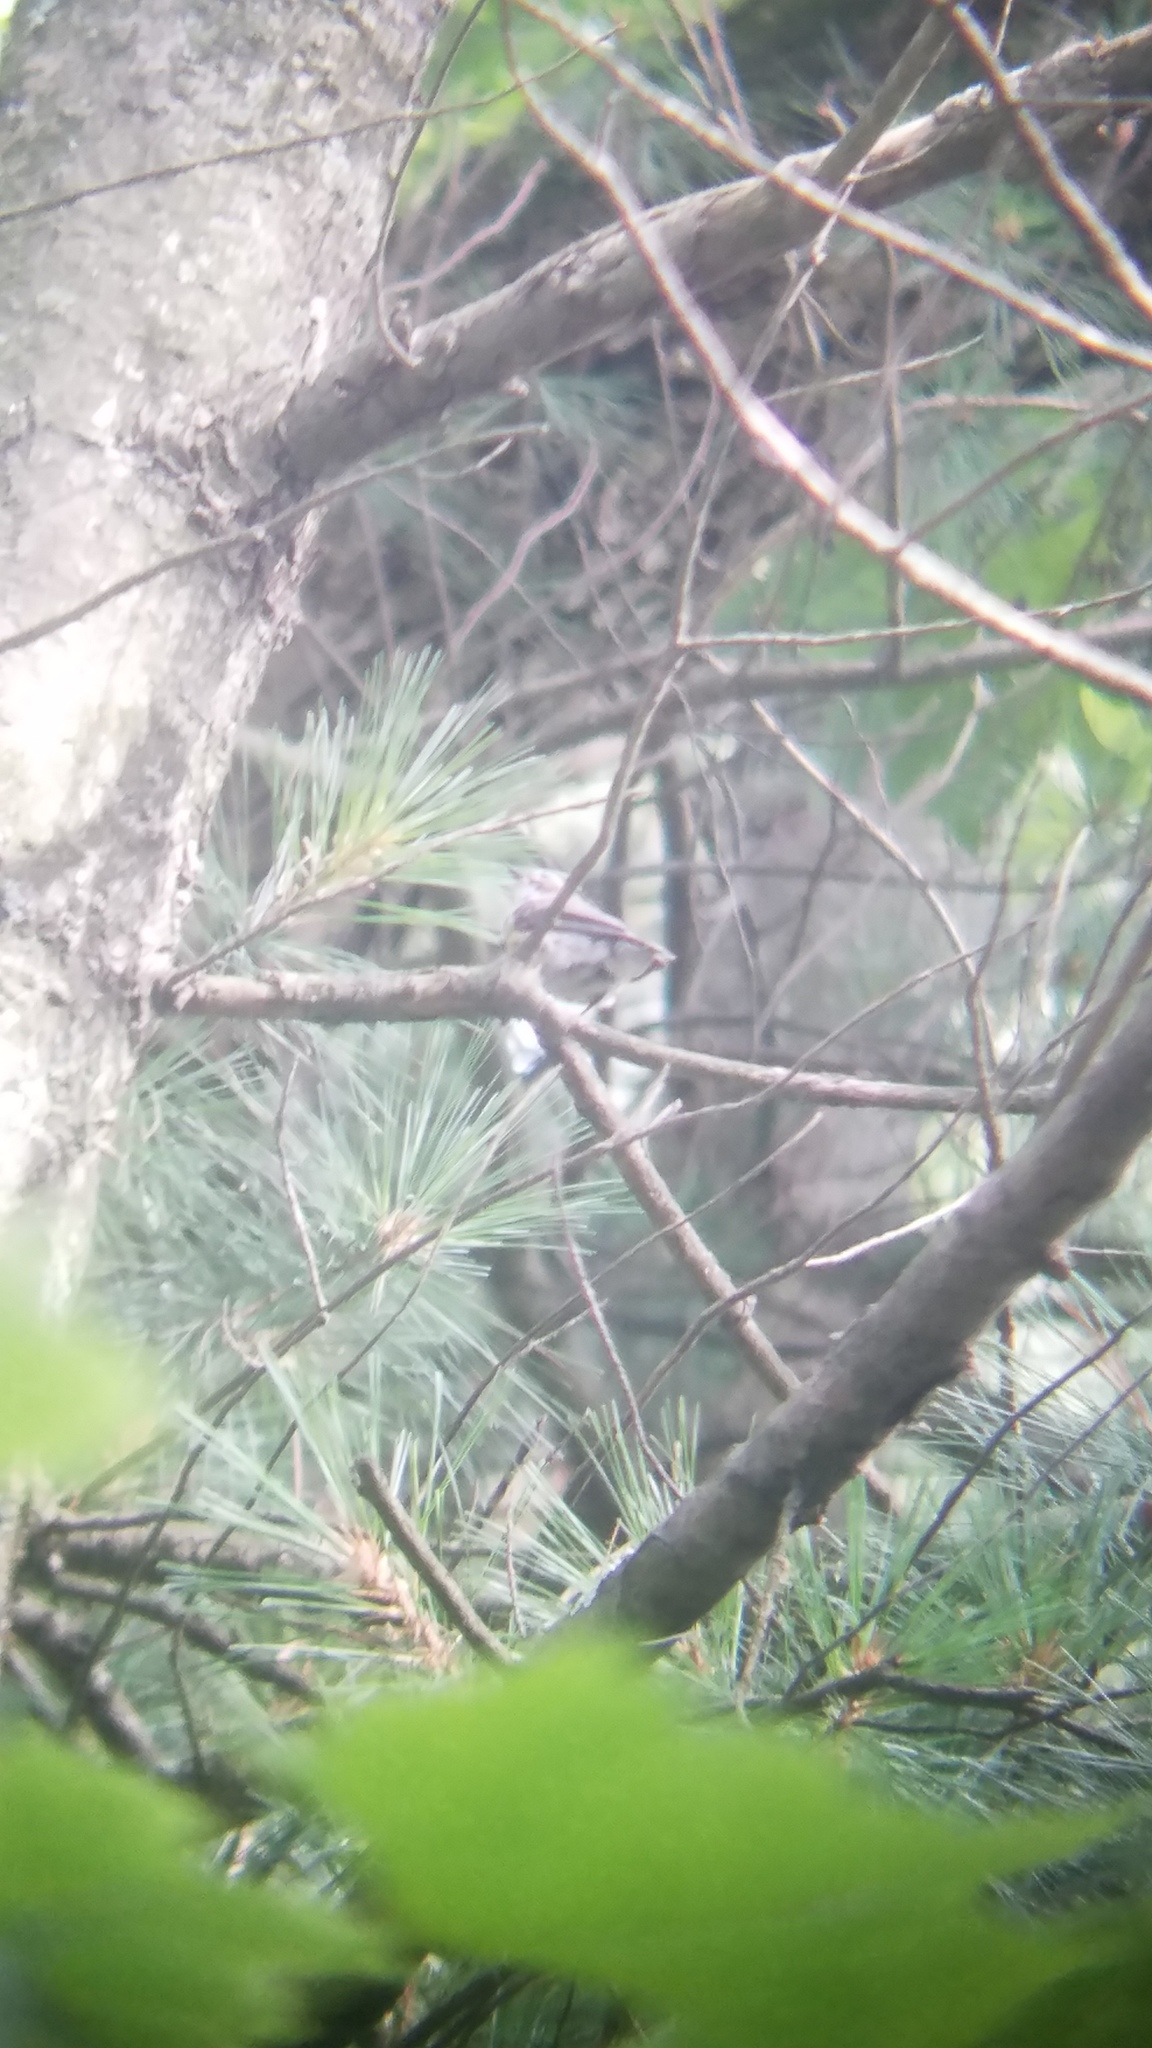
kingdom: Animalia
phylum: Chordata
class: Aves
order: Passeriformes
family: Parulidae
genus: Setophaga
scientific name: Setophaga coronata
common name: Myrtle warbler
